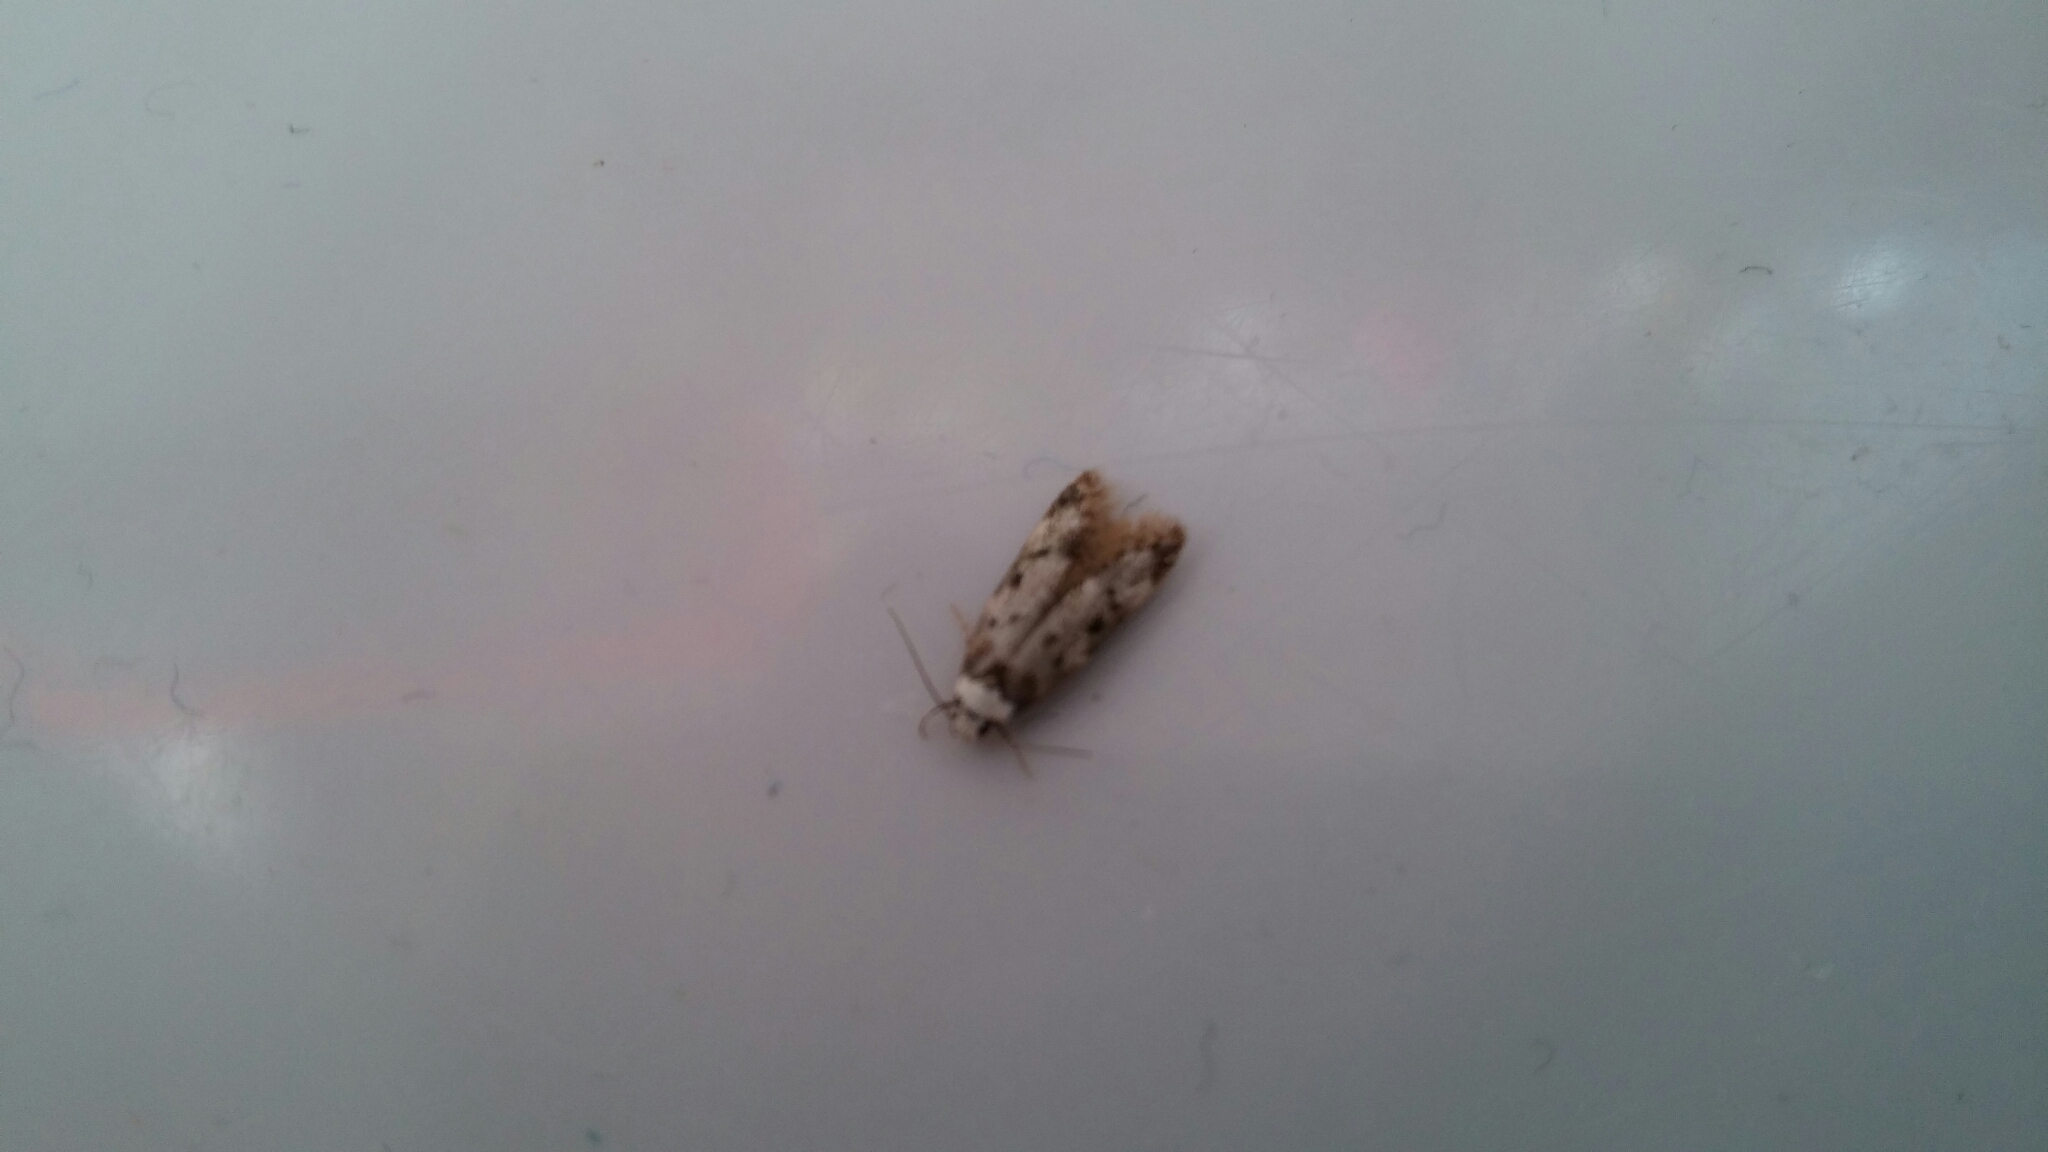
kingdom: Animalia
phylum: Arthropoda
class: Insecta
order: Lepidoptera
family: Oecophoridae
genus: Endrosis
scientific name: Endrosis sarcitrella
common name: White-shouldered house moth
